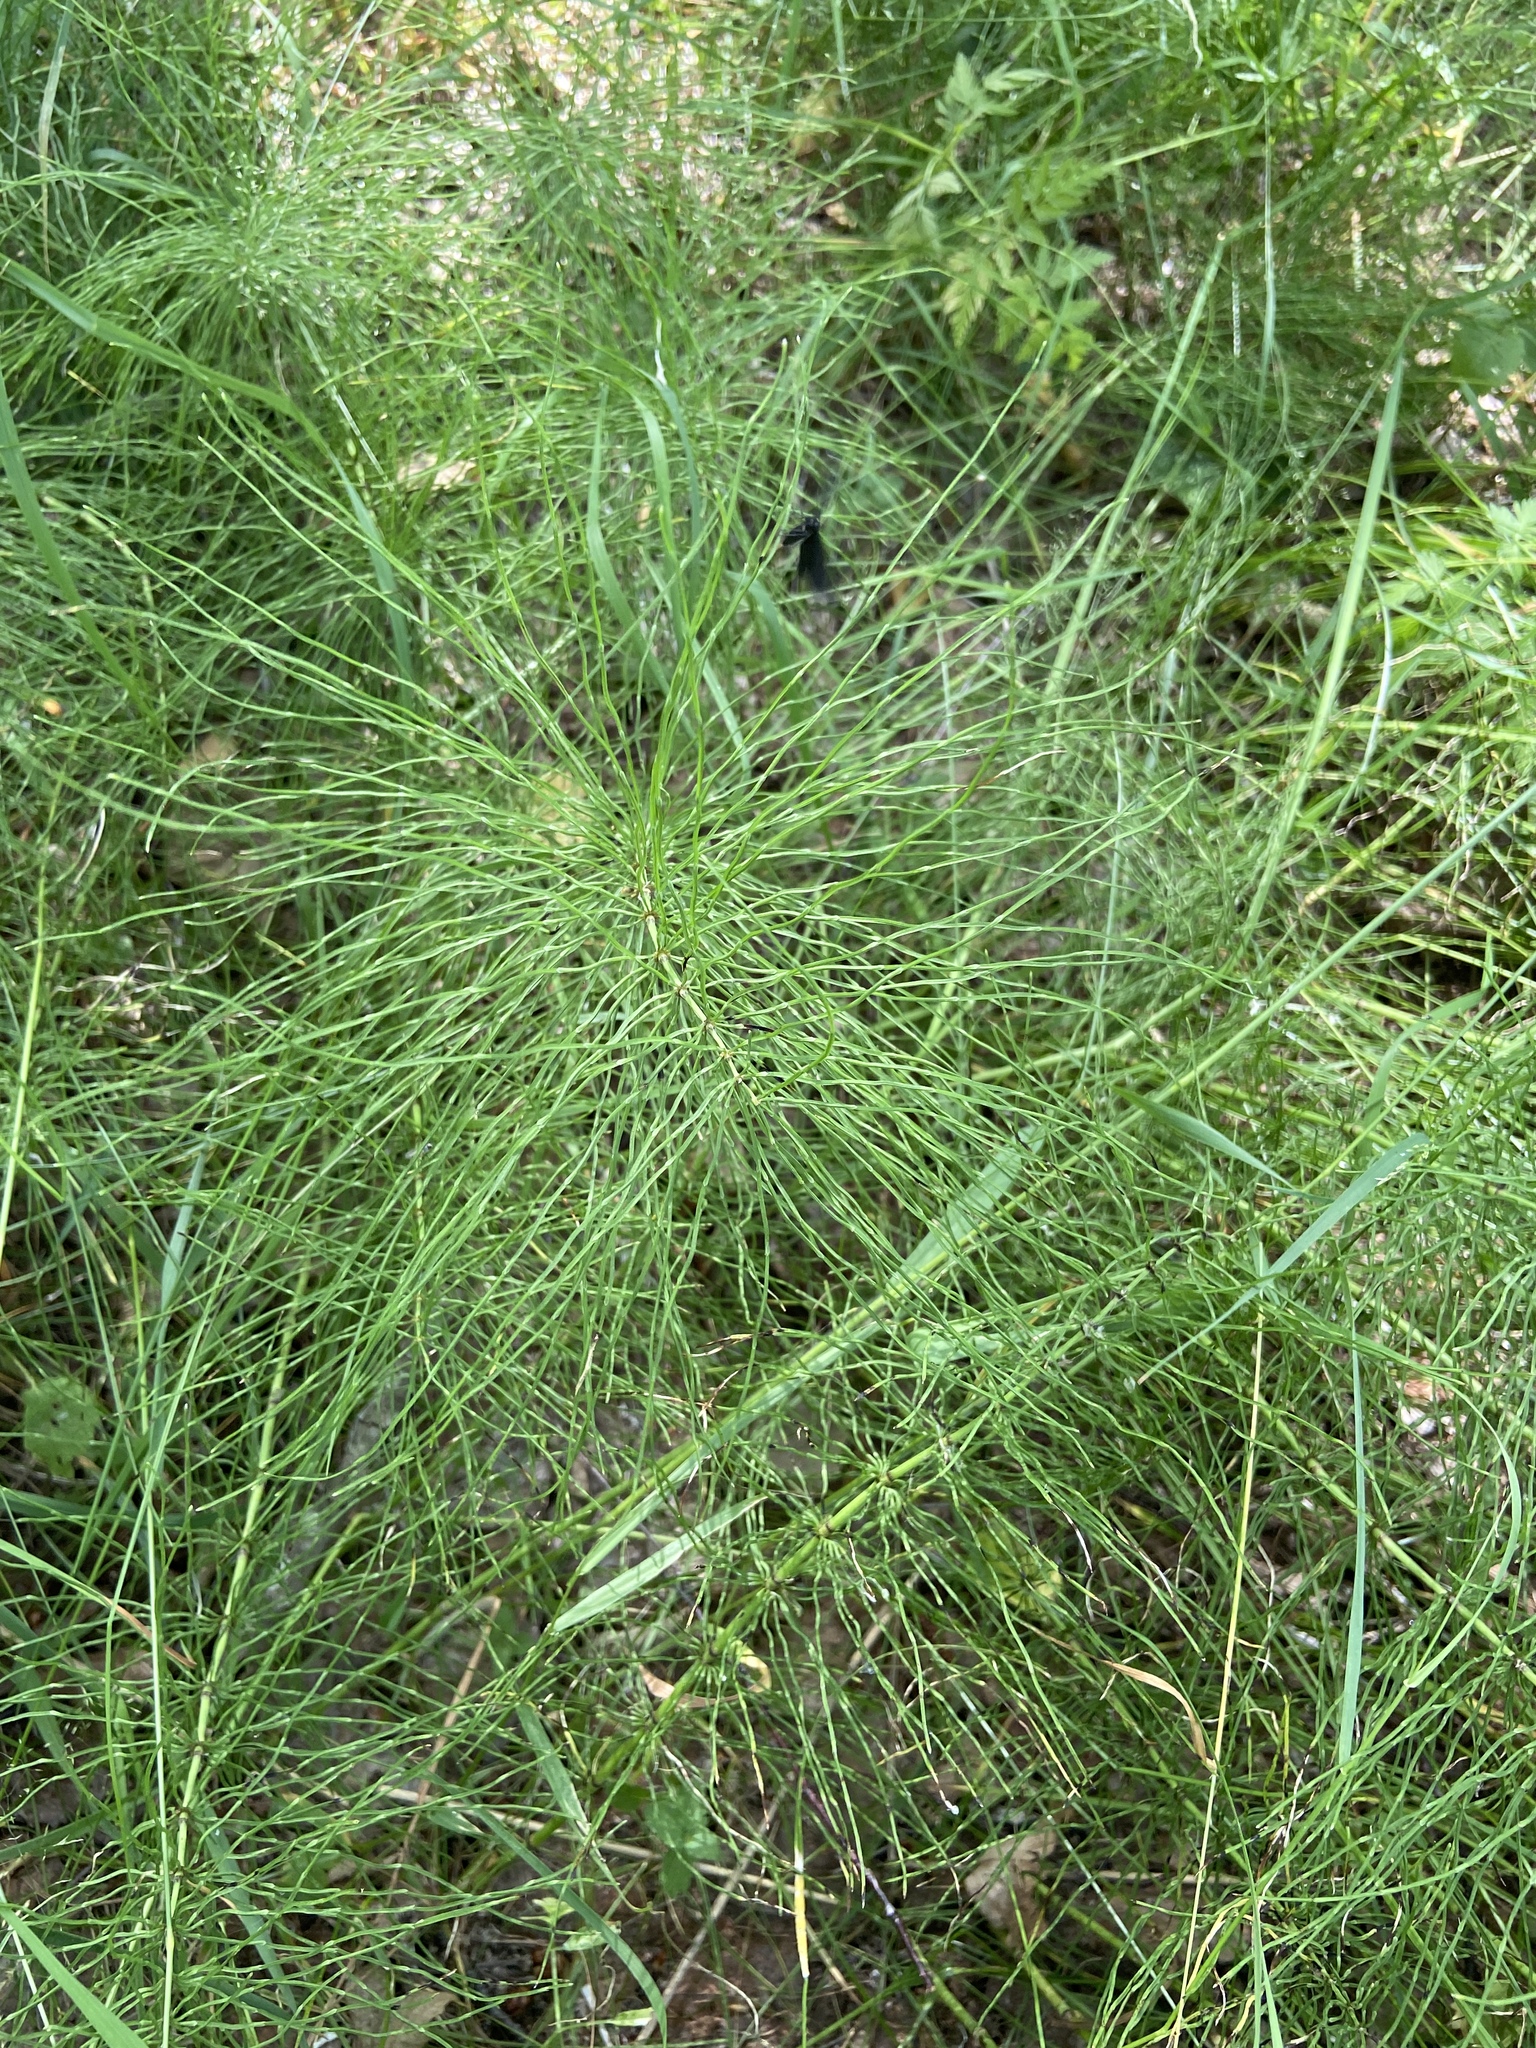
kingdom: Plantae
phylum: Tracheophyta
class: Polypodiopsida
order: Equisetales
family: Equisetaceae
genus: Equisetum
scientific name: Equisetum pratense
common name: Meadow horsetail
